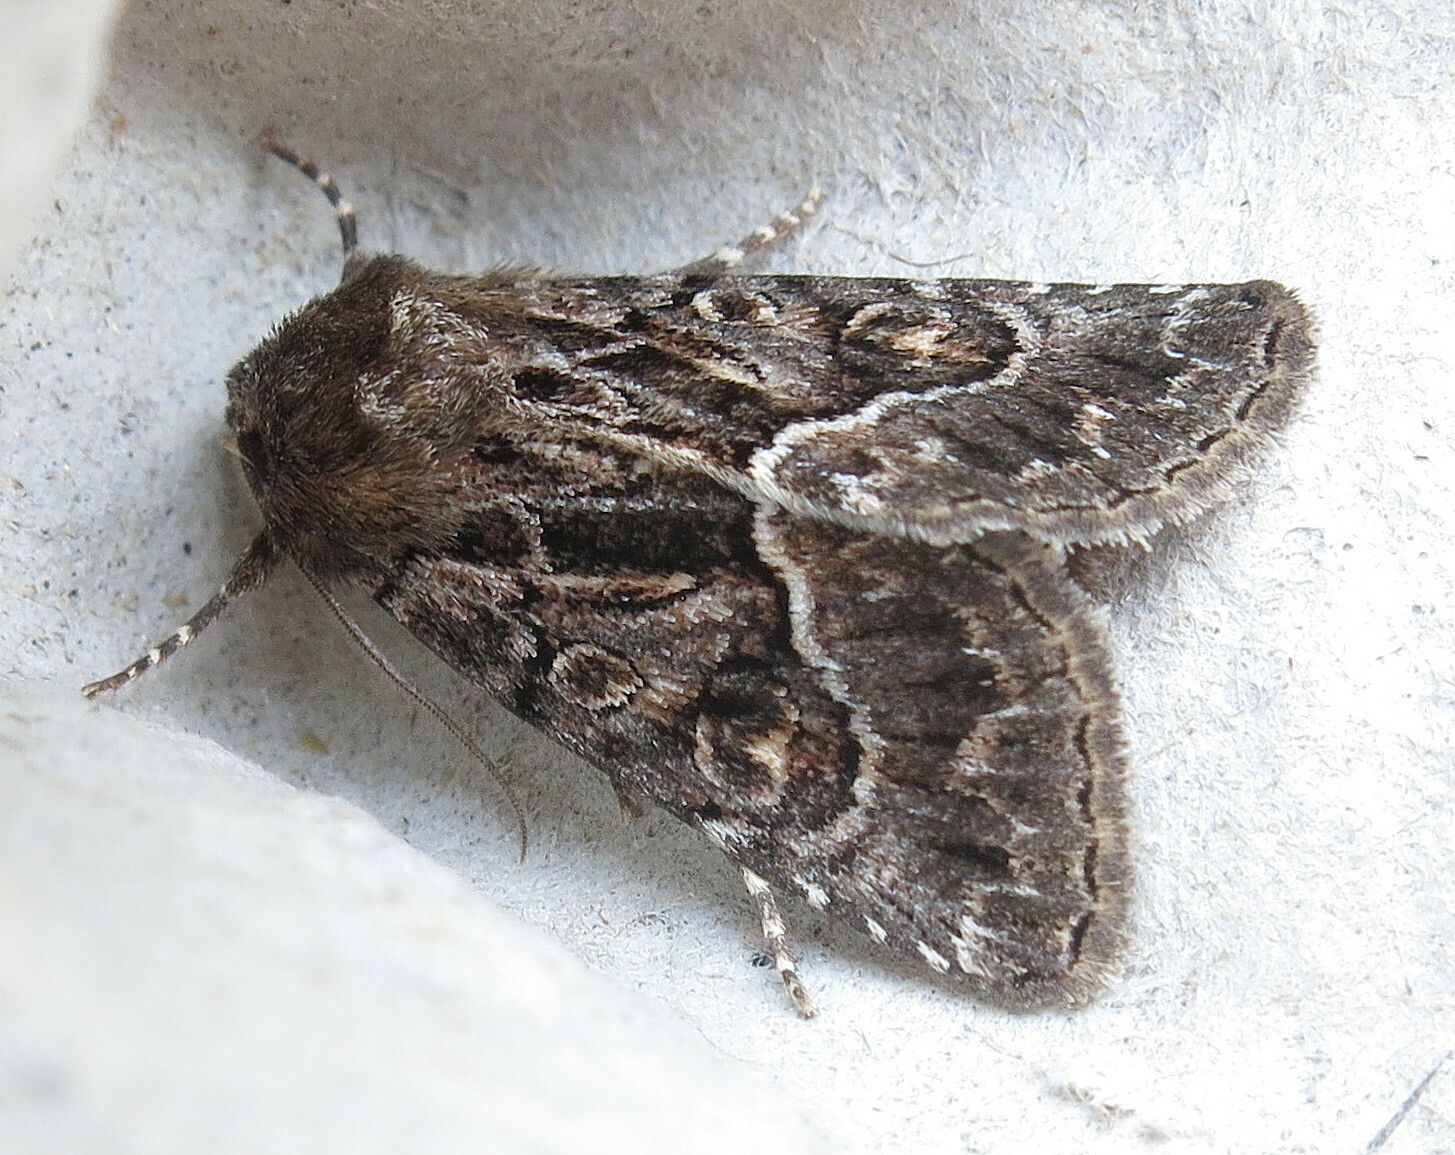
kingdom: Animalia
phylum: Arthropoda
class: Insecta
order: Lepidoptera
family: Noctuidae
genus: Thalpophila
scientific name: Thalpophila matura
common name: Straw underwing
